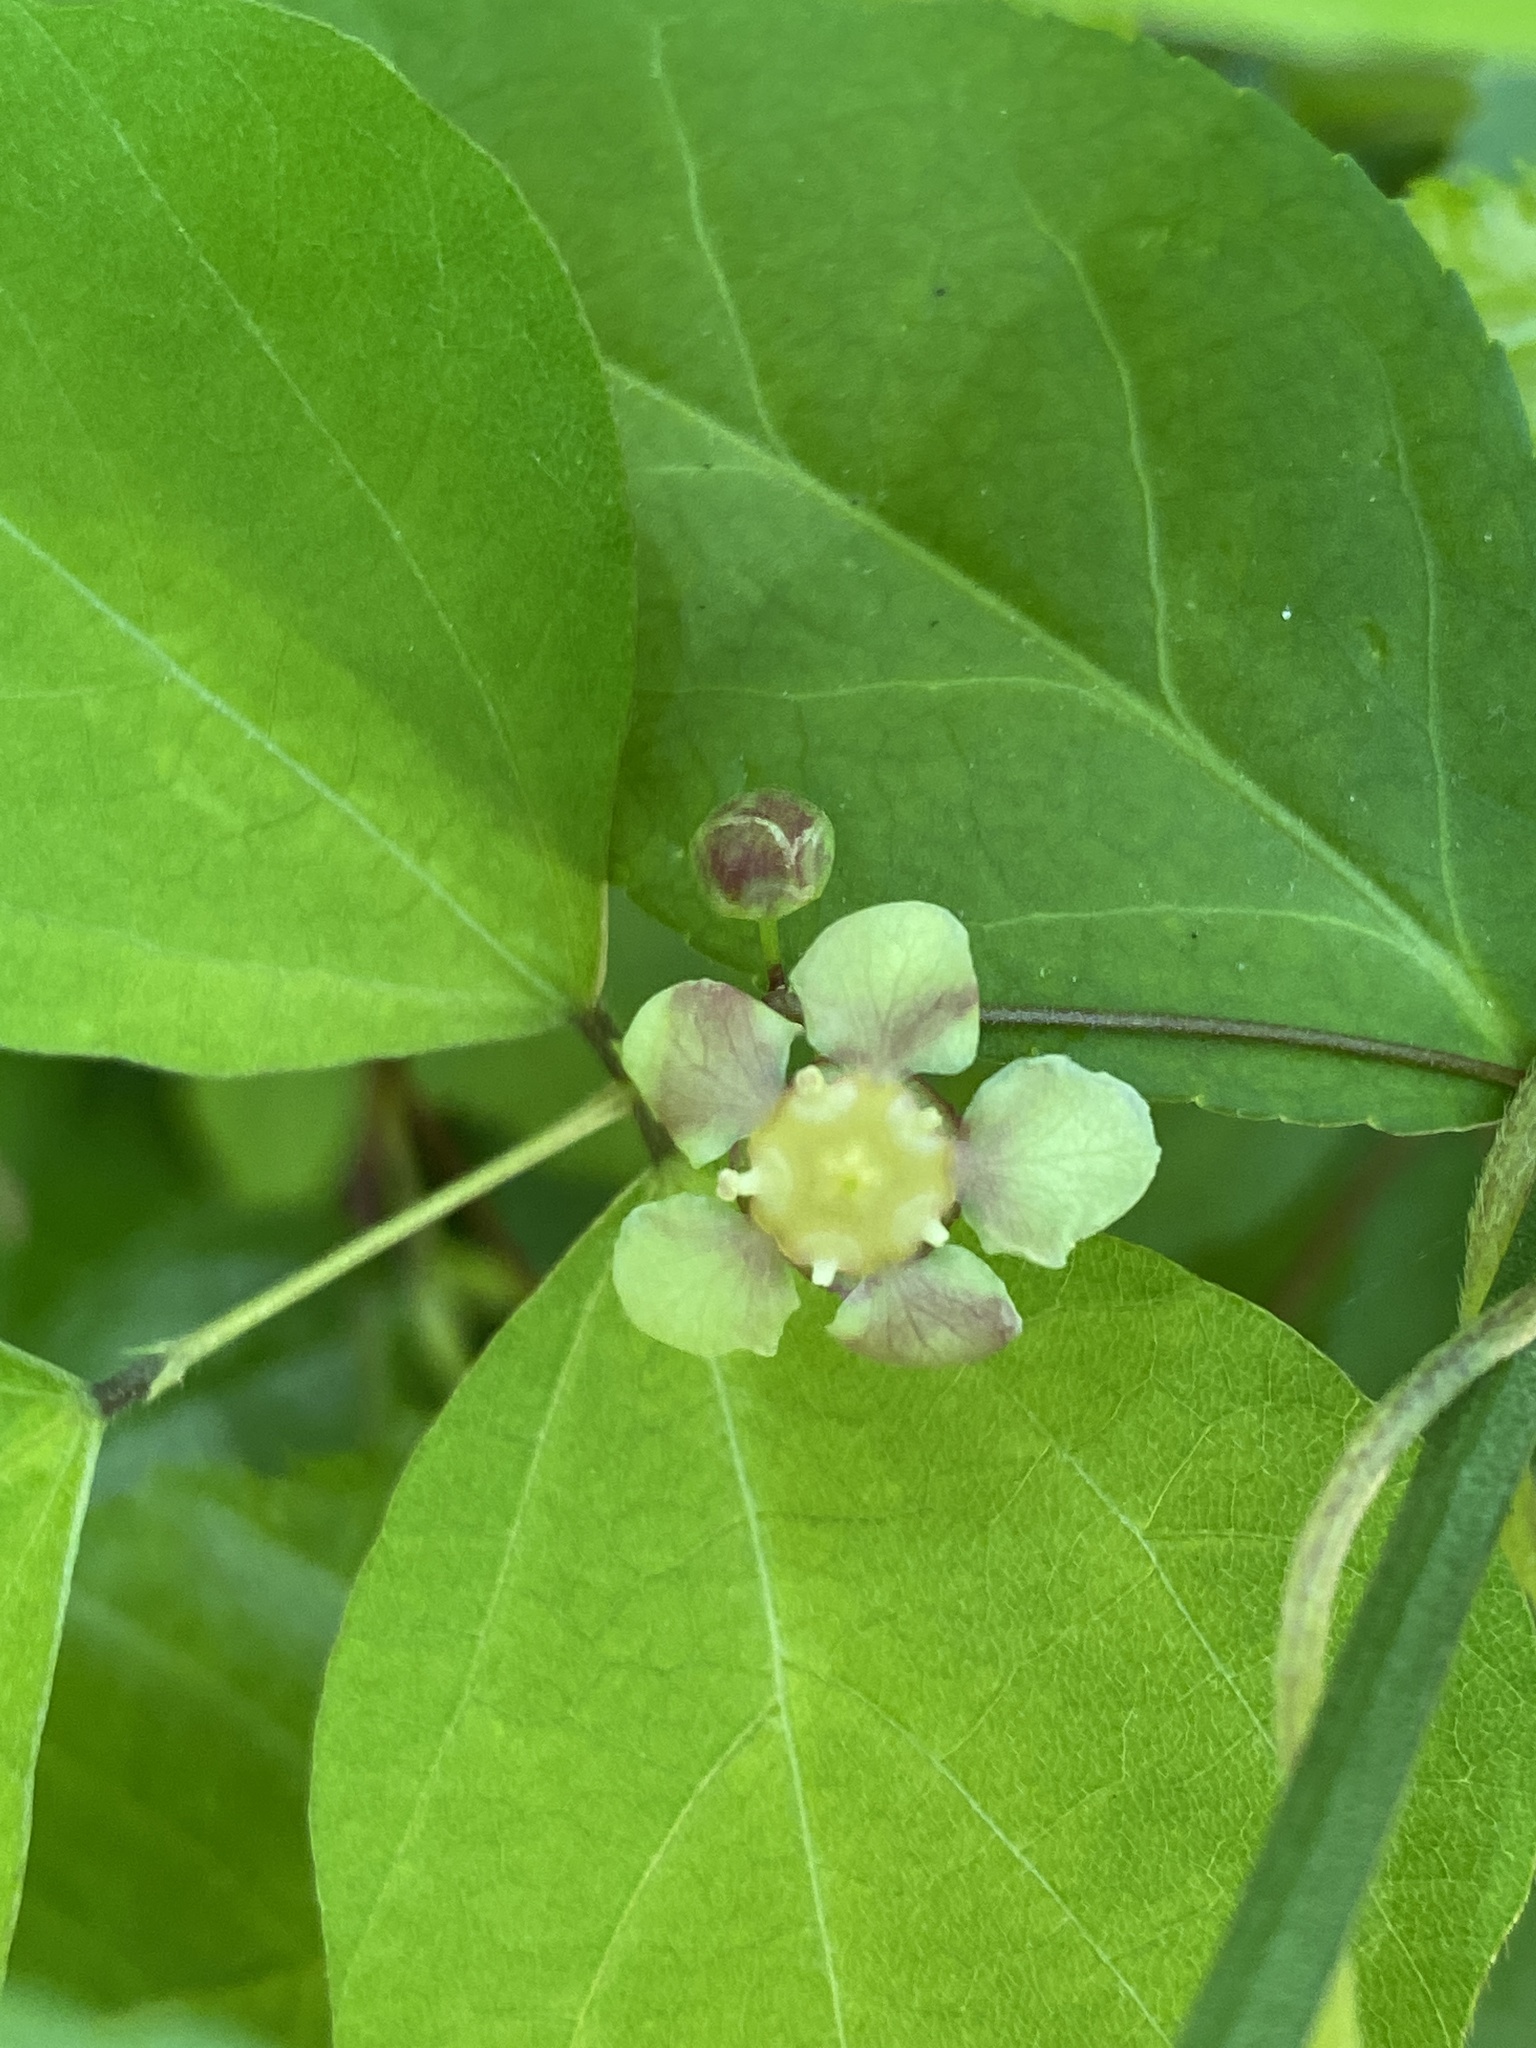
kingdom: Plantae
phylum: Tracheophyta
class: Magnoliopsida
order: Celastrales
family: Celastraceae
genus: Euonymus
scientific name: Euonymus americanus
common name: Bursting-heart
